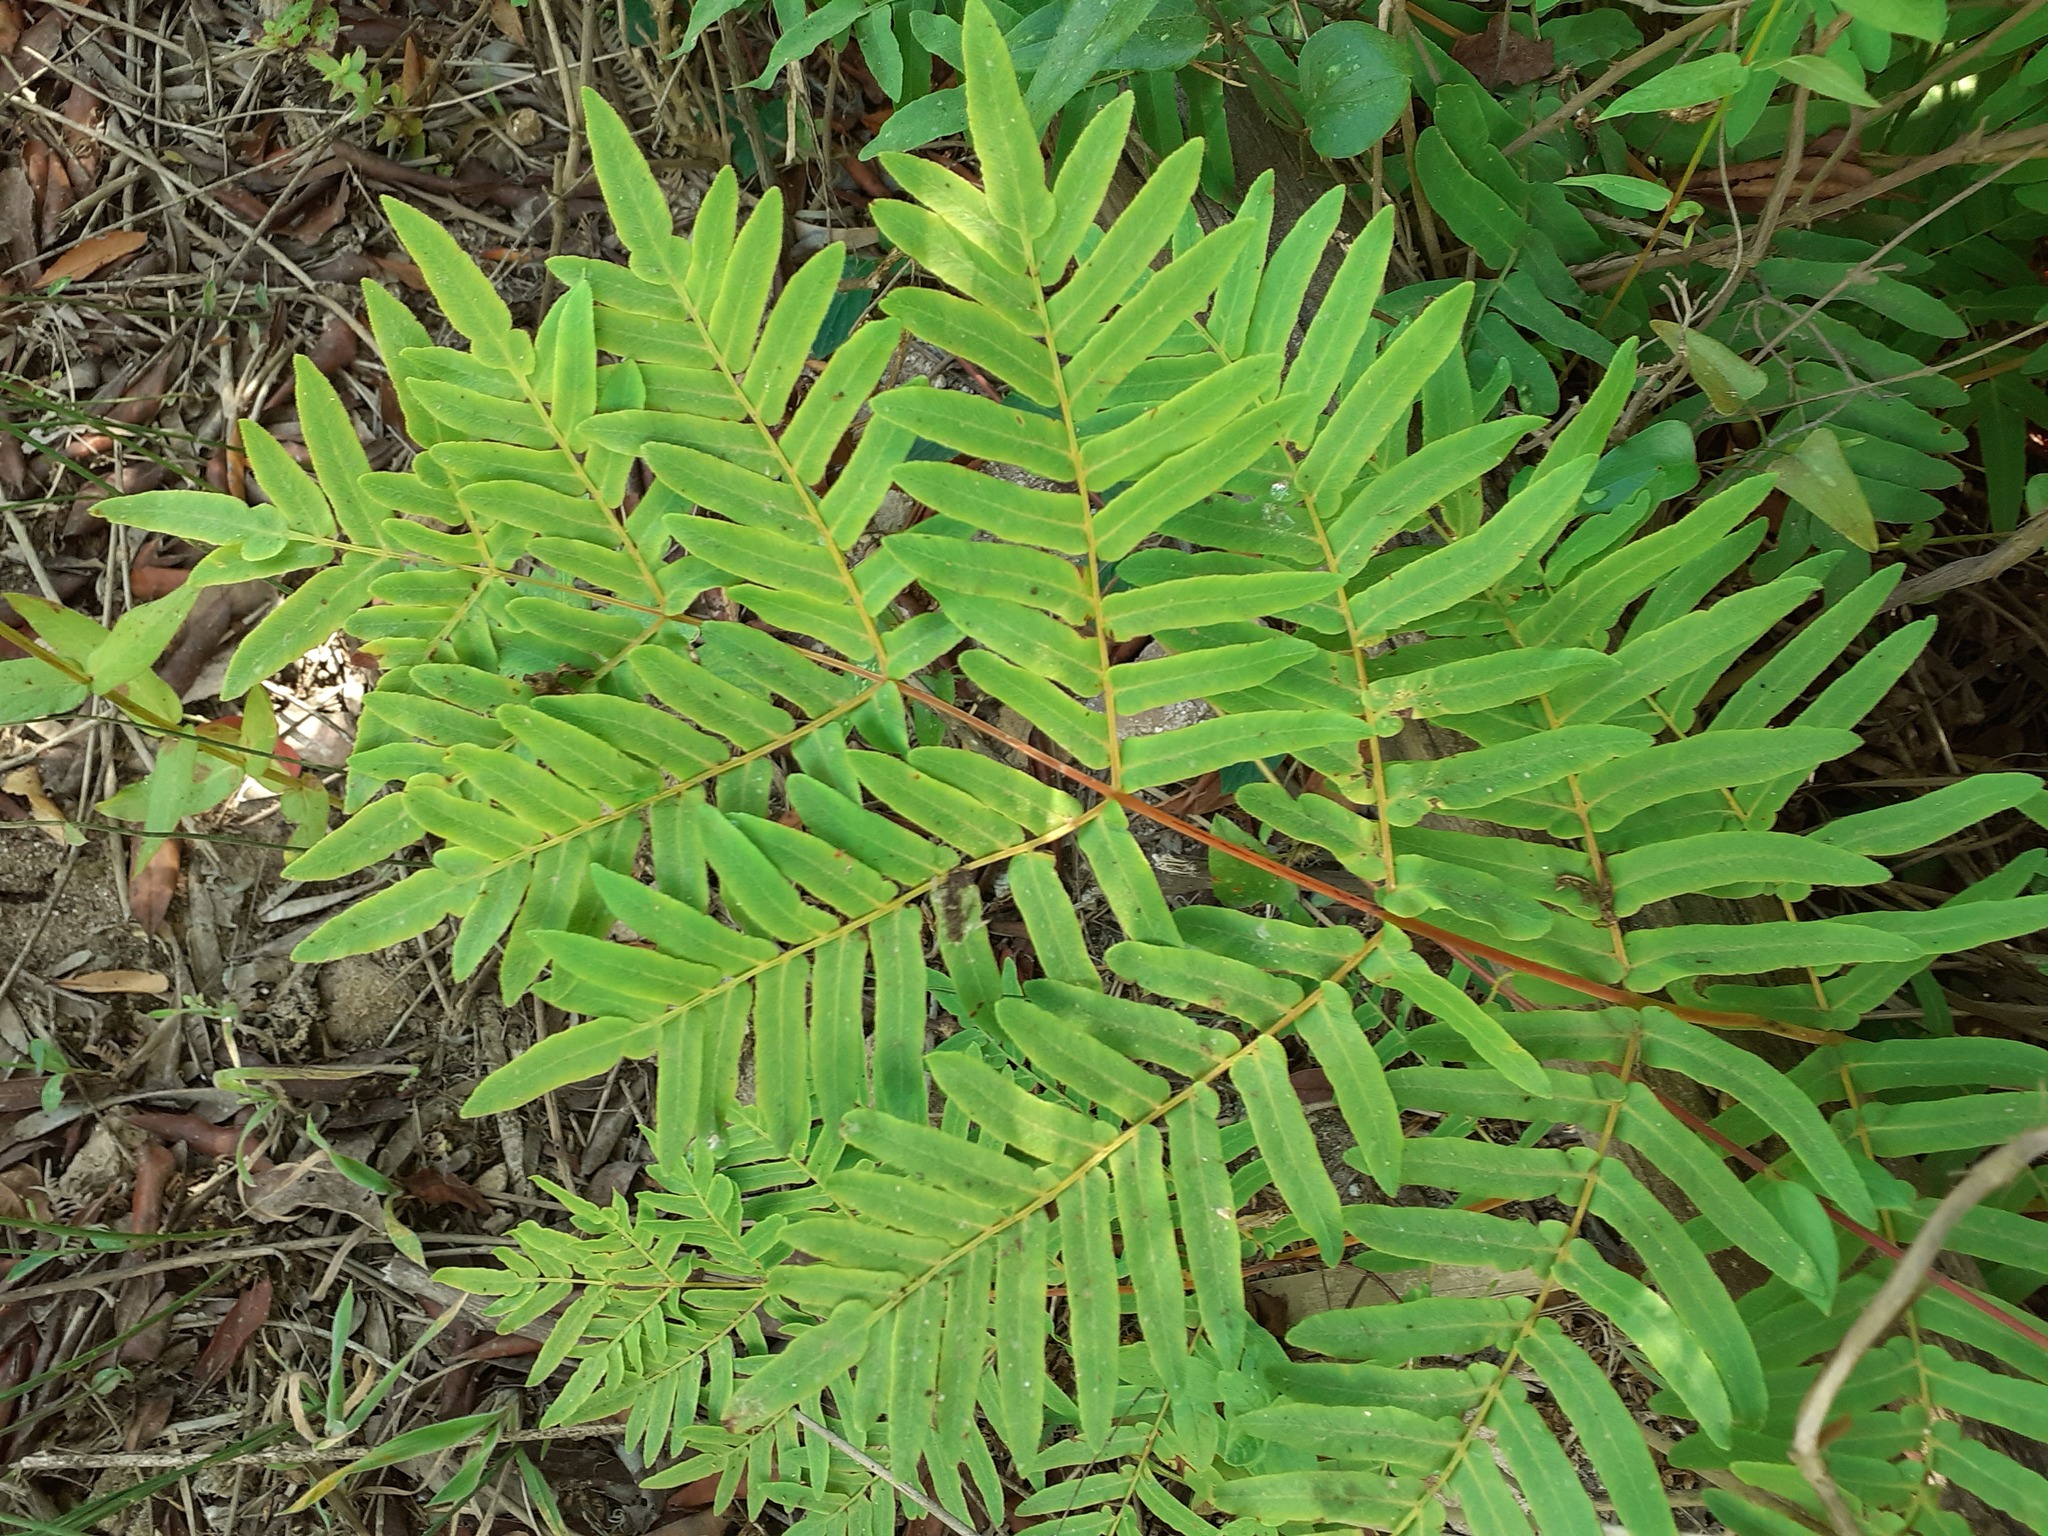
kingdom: Plantae
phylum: Tracheophyta
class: Polypodiopsida
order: Osmundales
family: Osmundaceae
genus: Osmunda
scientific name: Osmunda regalis
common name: Royal fern
